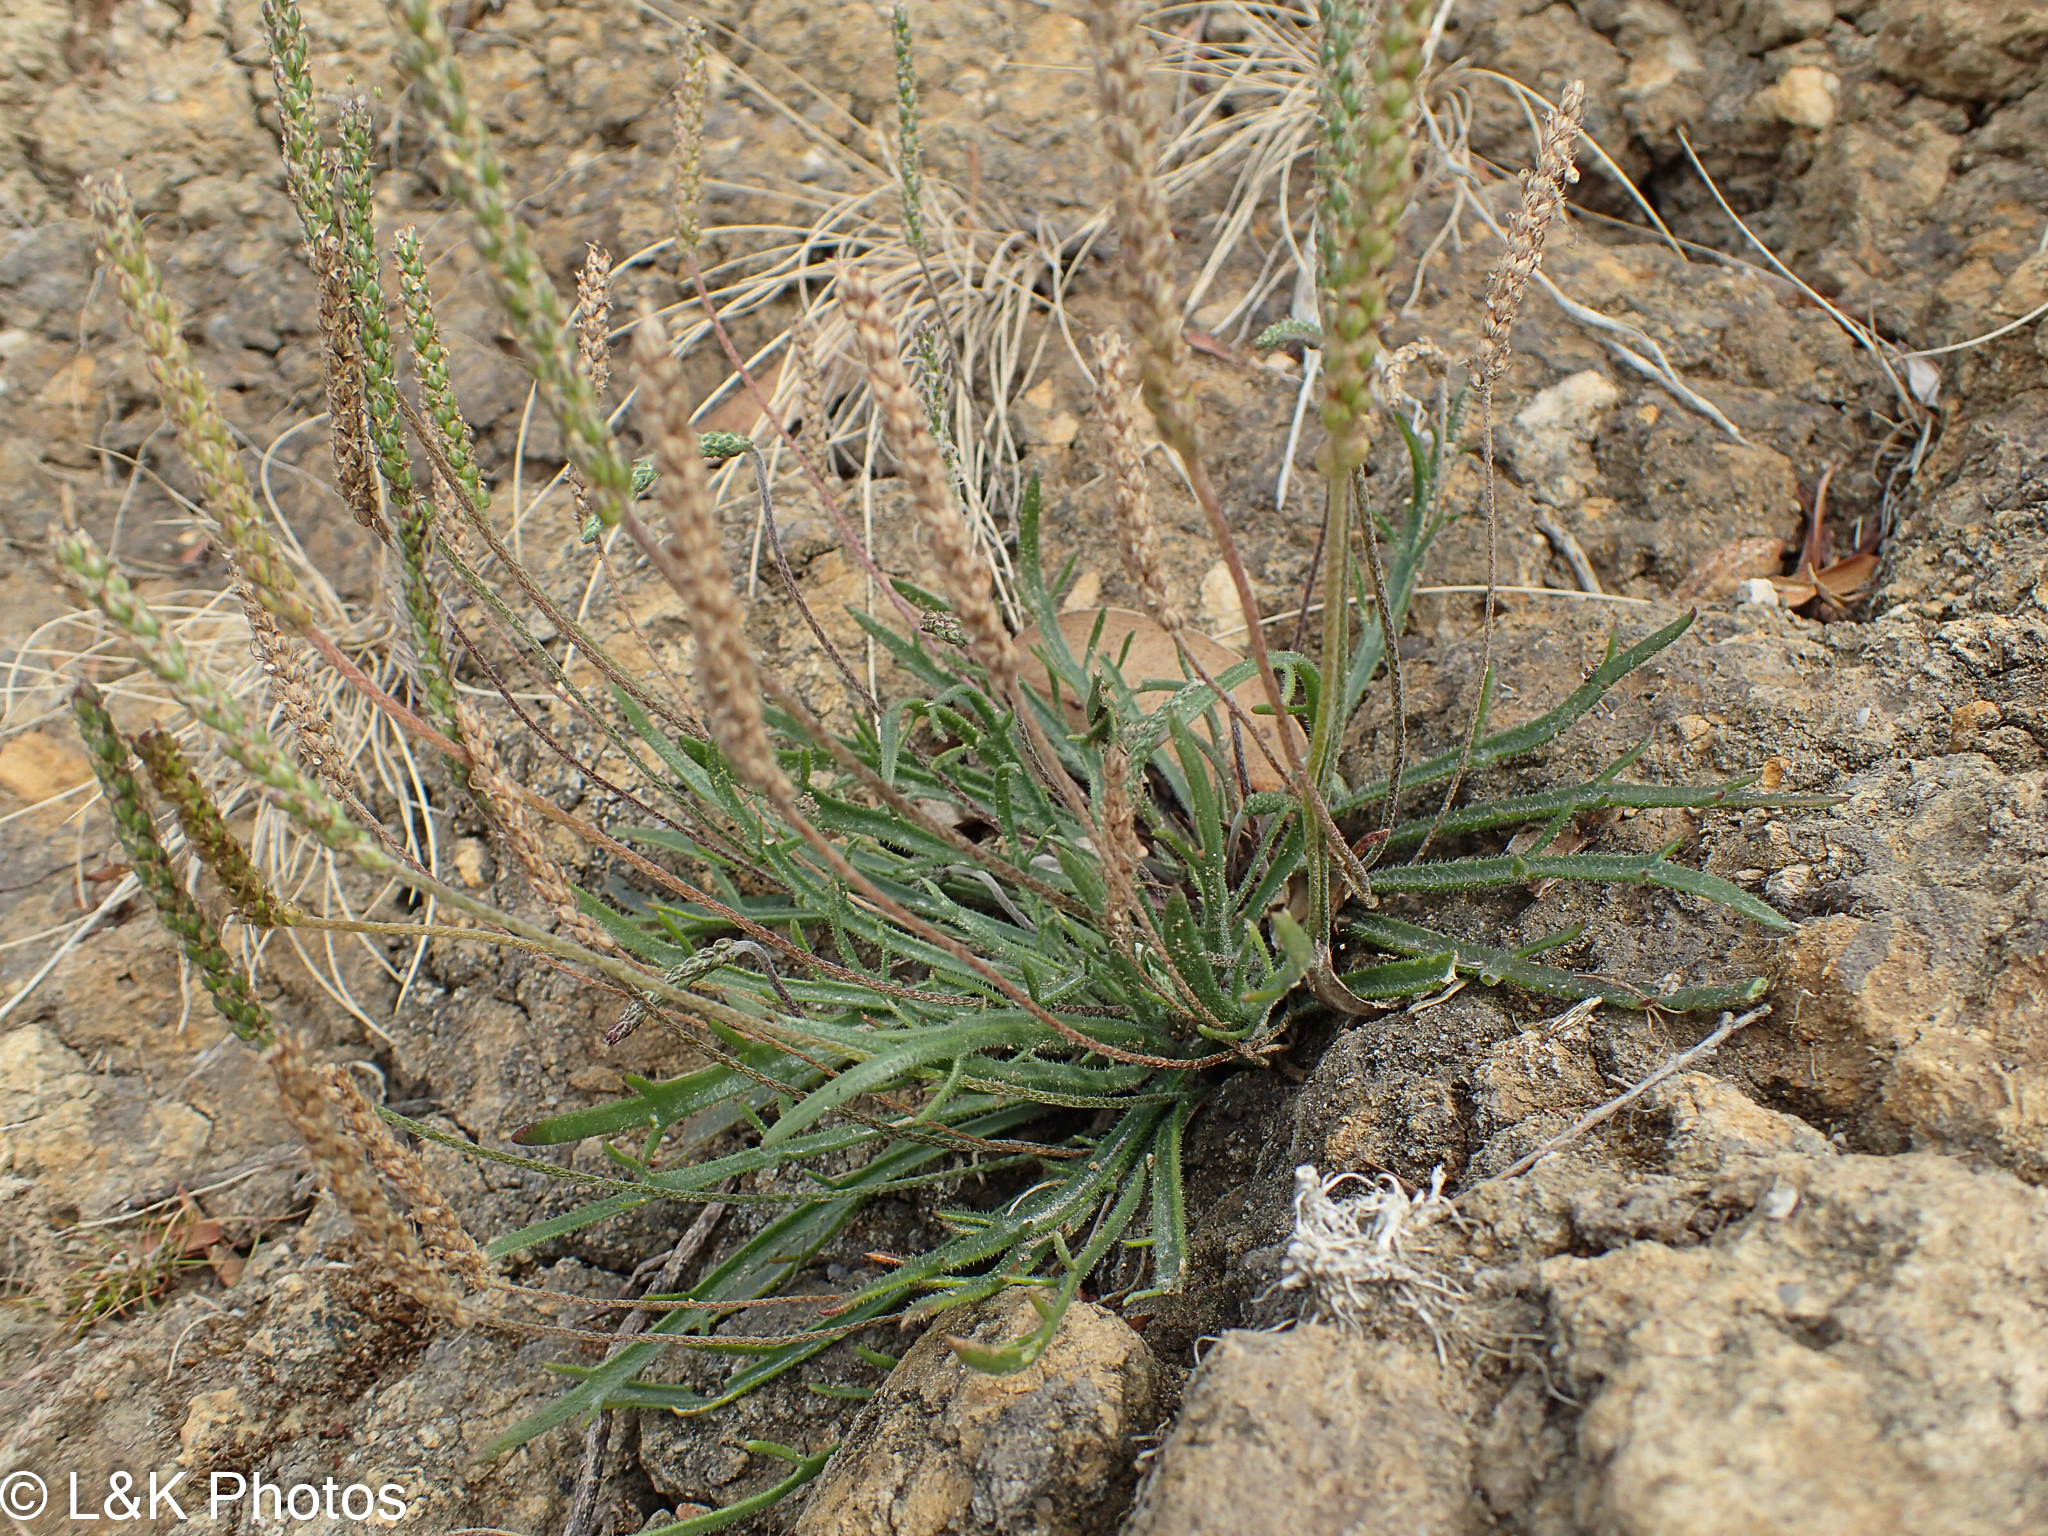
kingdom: Plantae
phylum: Tracheophyta
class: Magnoliopsida
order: Lamiales
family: Plantaginaceae
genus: Plantago
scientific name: Plantago coronopus
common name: Buck's-horn plantain
